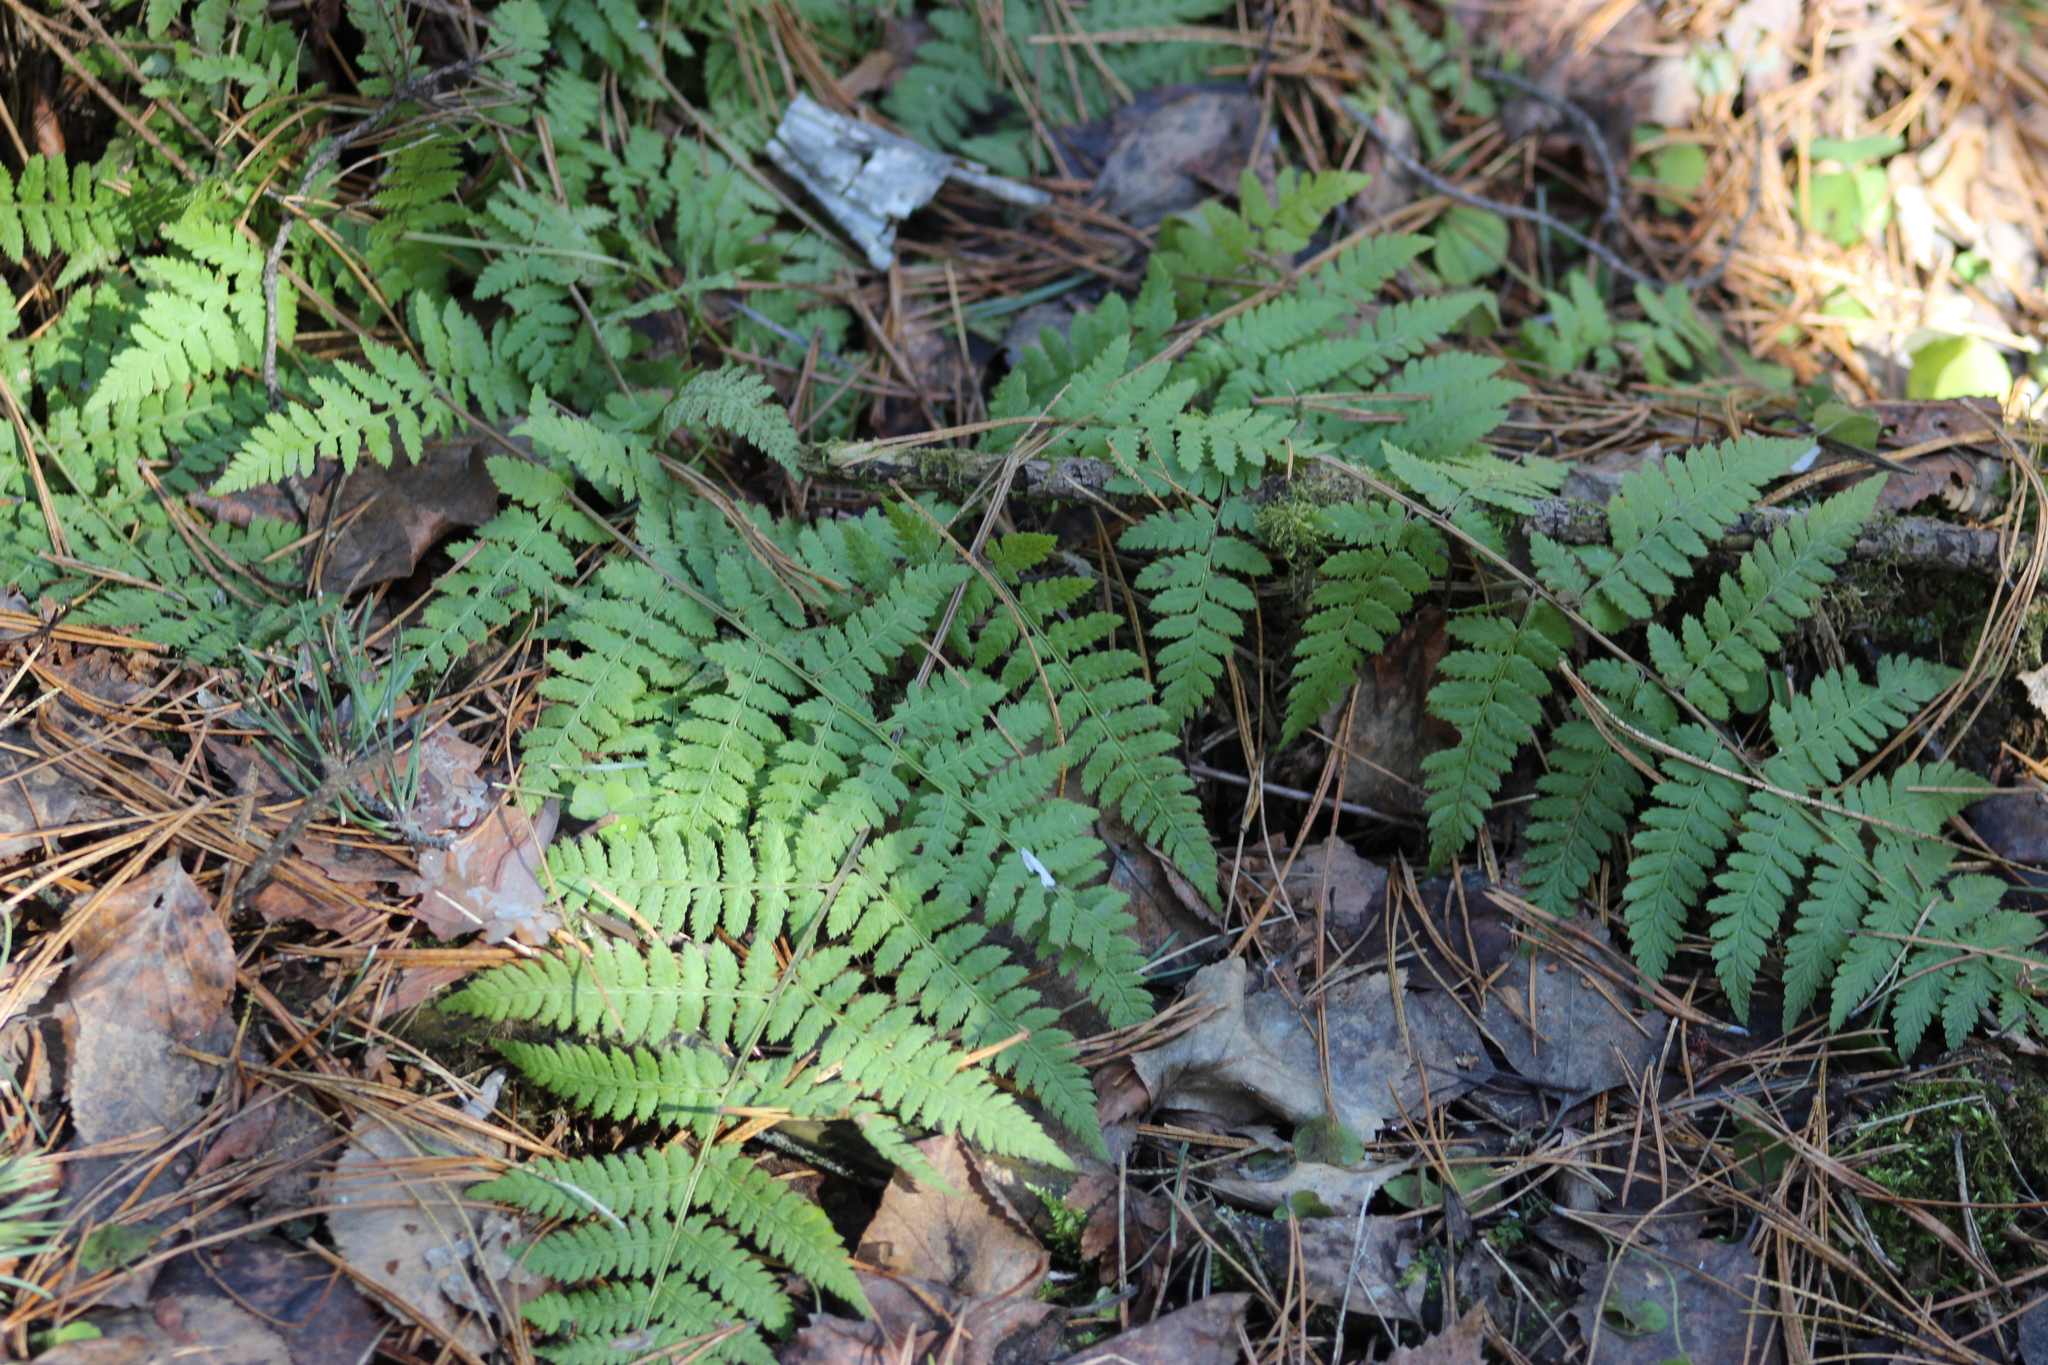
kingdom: Plantae
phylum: Tracheophyta
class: Polypodiopsida
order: Polypodiales
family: Dryopteridaceae
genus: Dryopteris
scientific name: Dryopteris carthusiana
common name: Narrow buckler-fern
